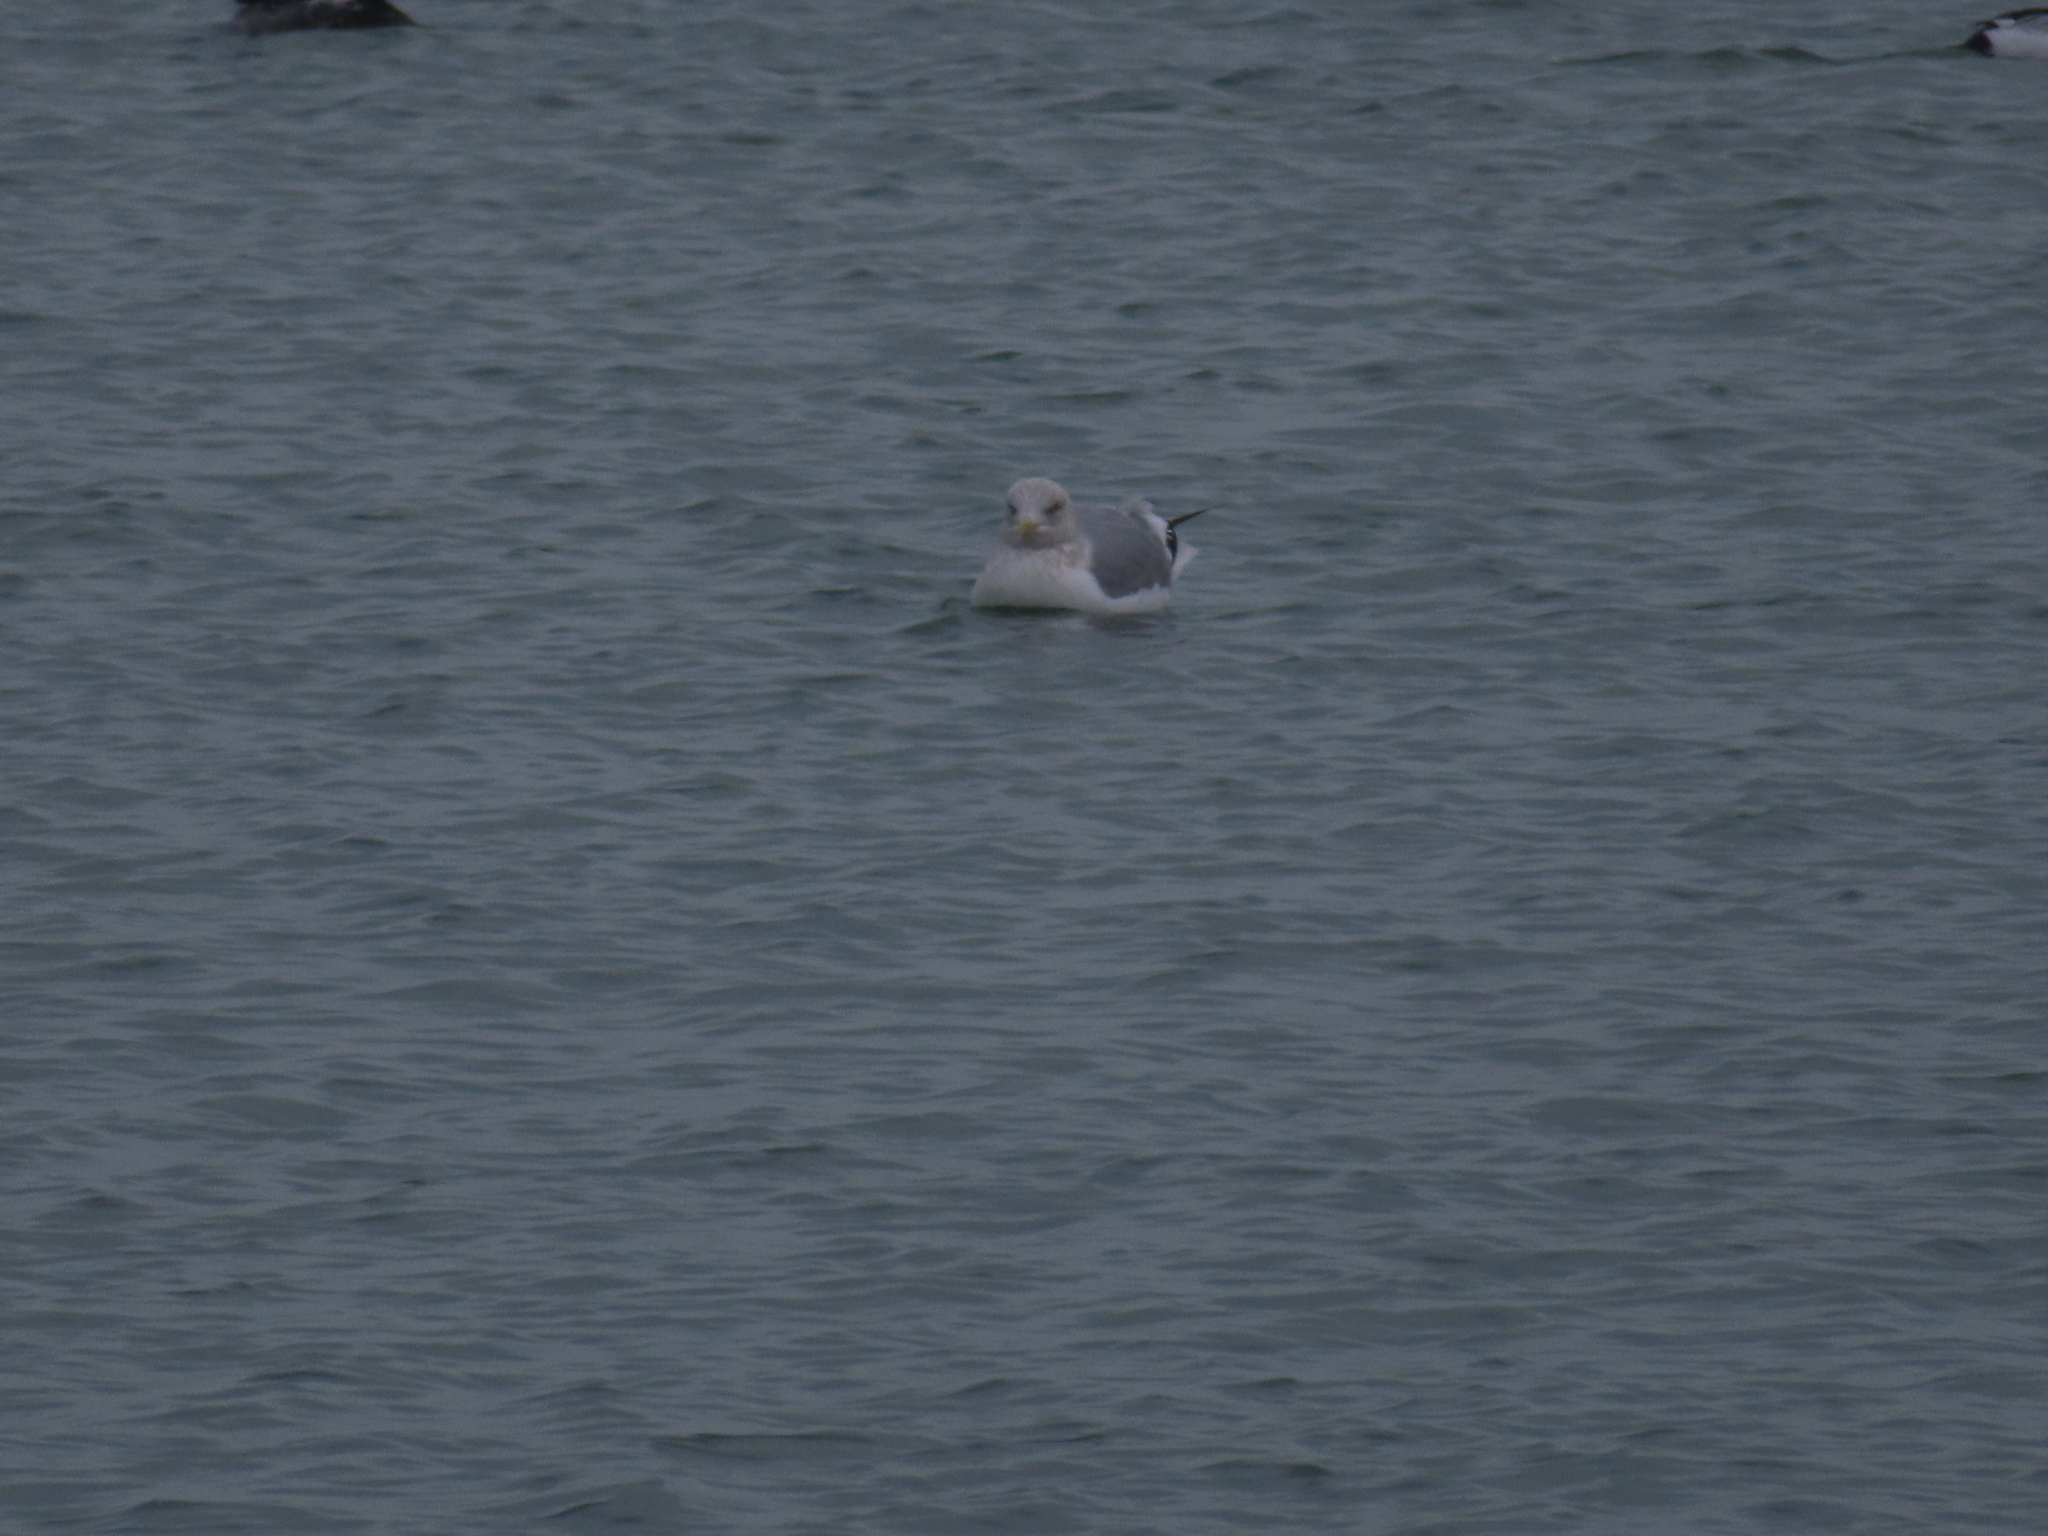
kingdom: Animalia
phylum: Chordata
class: Aves
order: Charadriiformes
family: Laridae
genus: Larus
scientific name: Larus argentatus
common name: Herring gull
